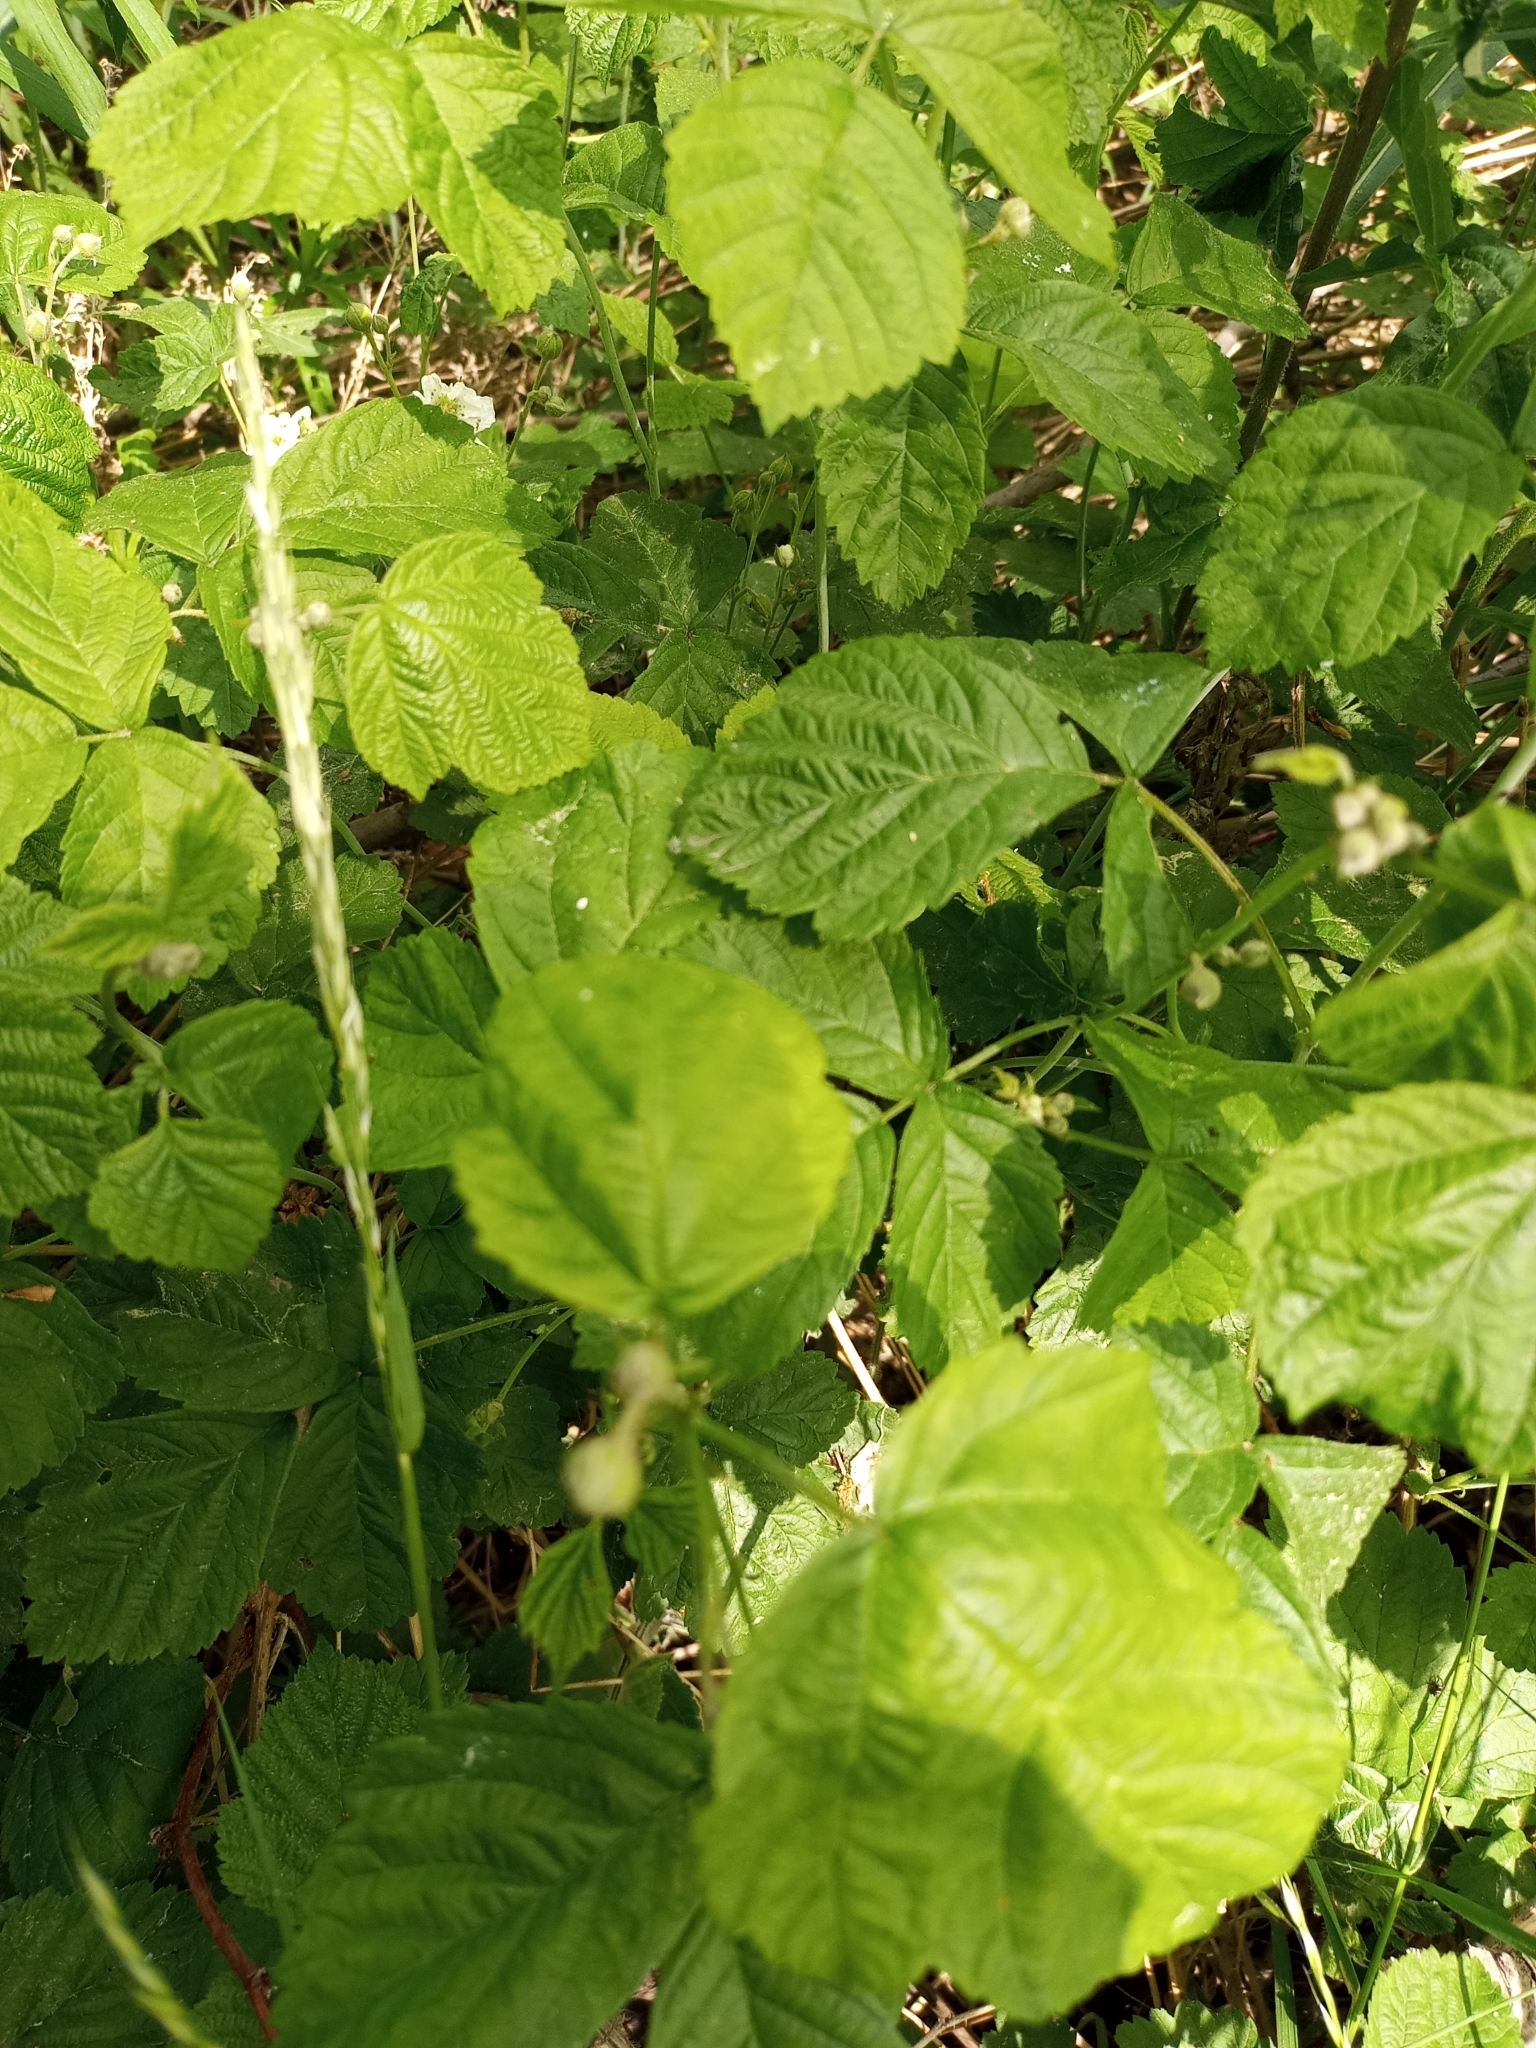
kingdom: Plantae
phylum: Tracheophyta
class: Magnoliopsida
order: Rosales
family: Rosaceae
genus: Rubus
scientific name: Rubus caesius
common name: Dewberry
